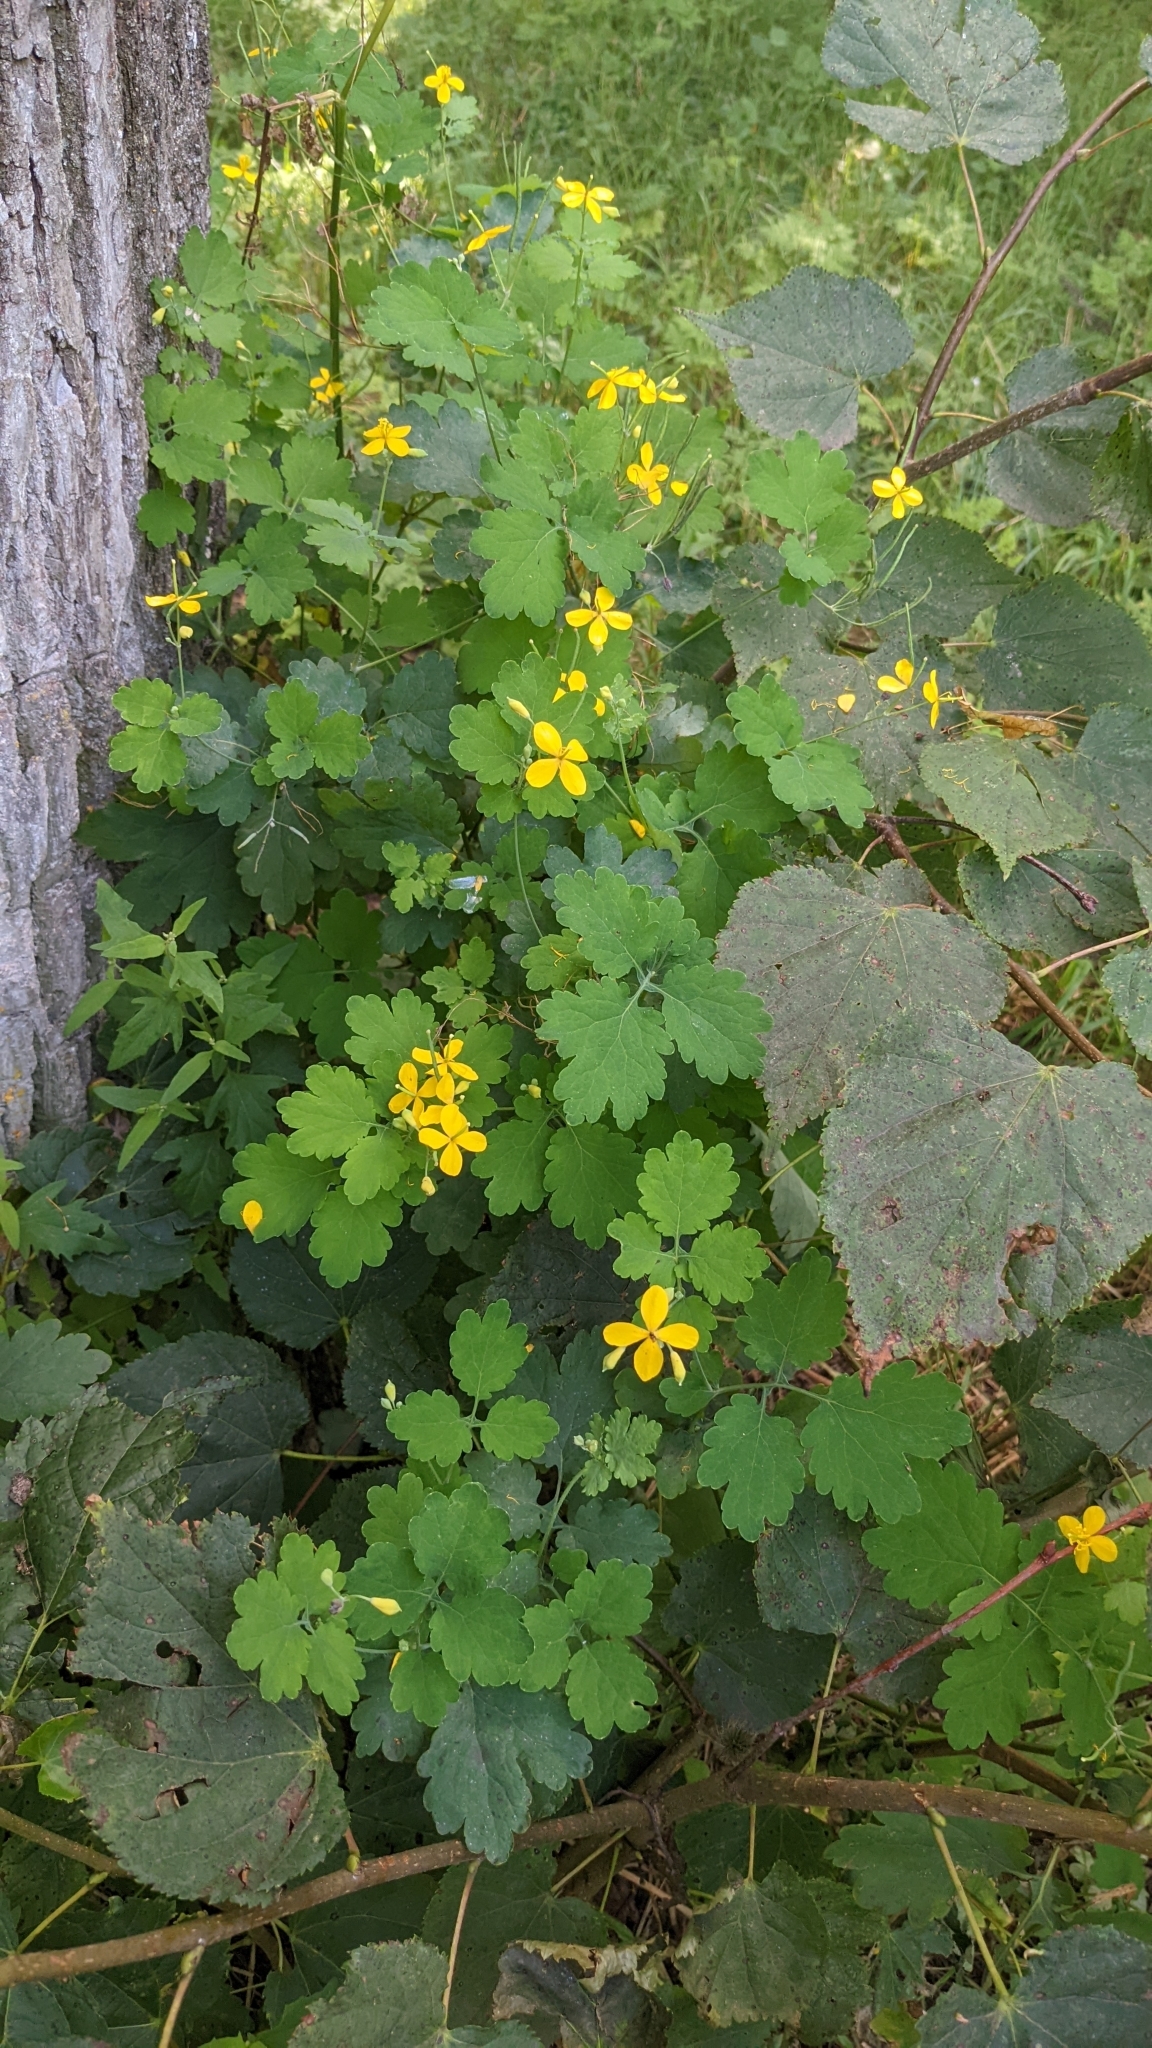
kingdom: Plantae
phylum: Tracheophyta
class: Magnoliopsida
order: Ranunculales
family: Papaveraceae
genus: Chelidonium
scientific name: Chelidonium majus
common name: Greater celandine
